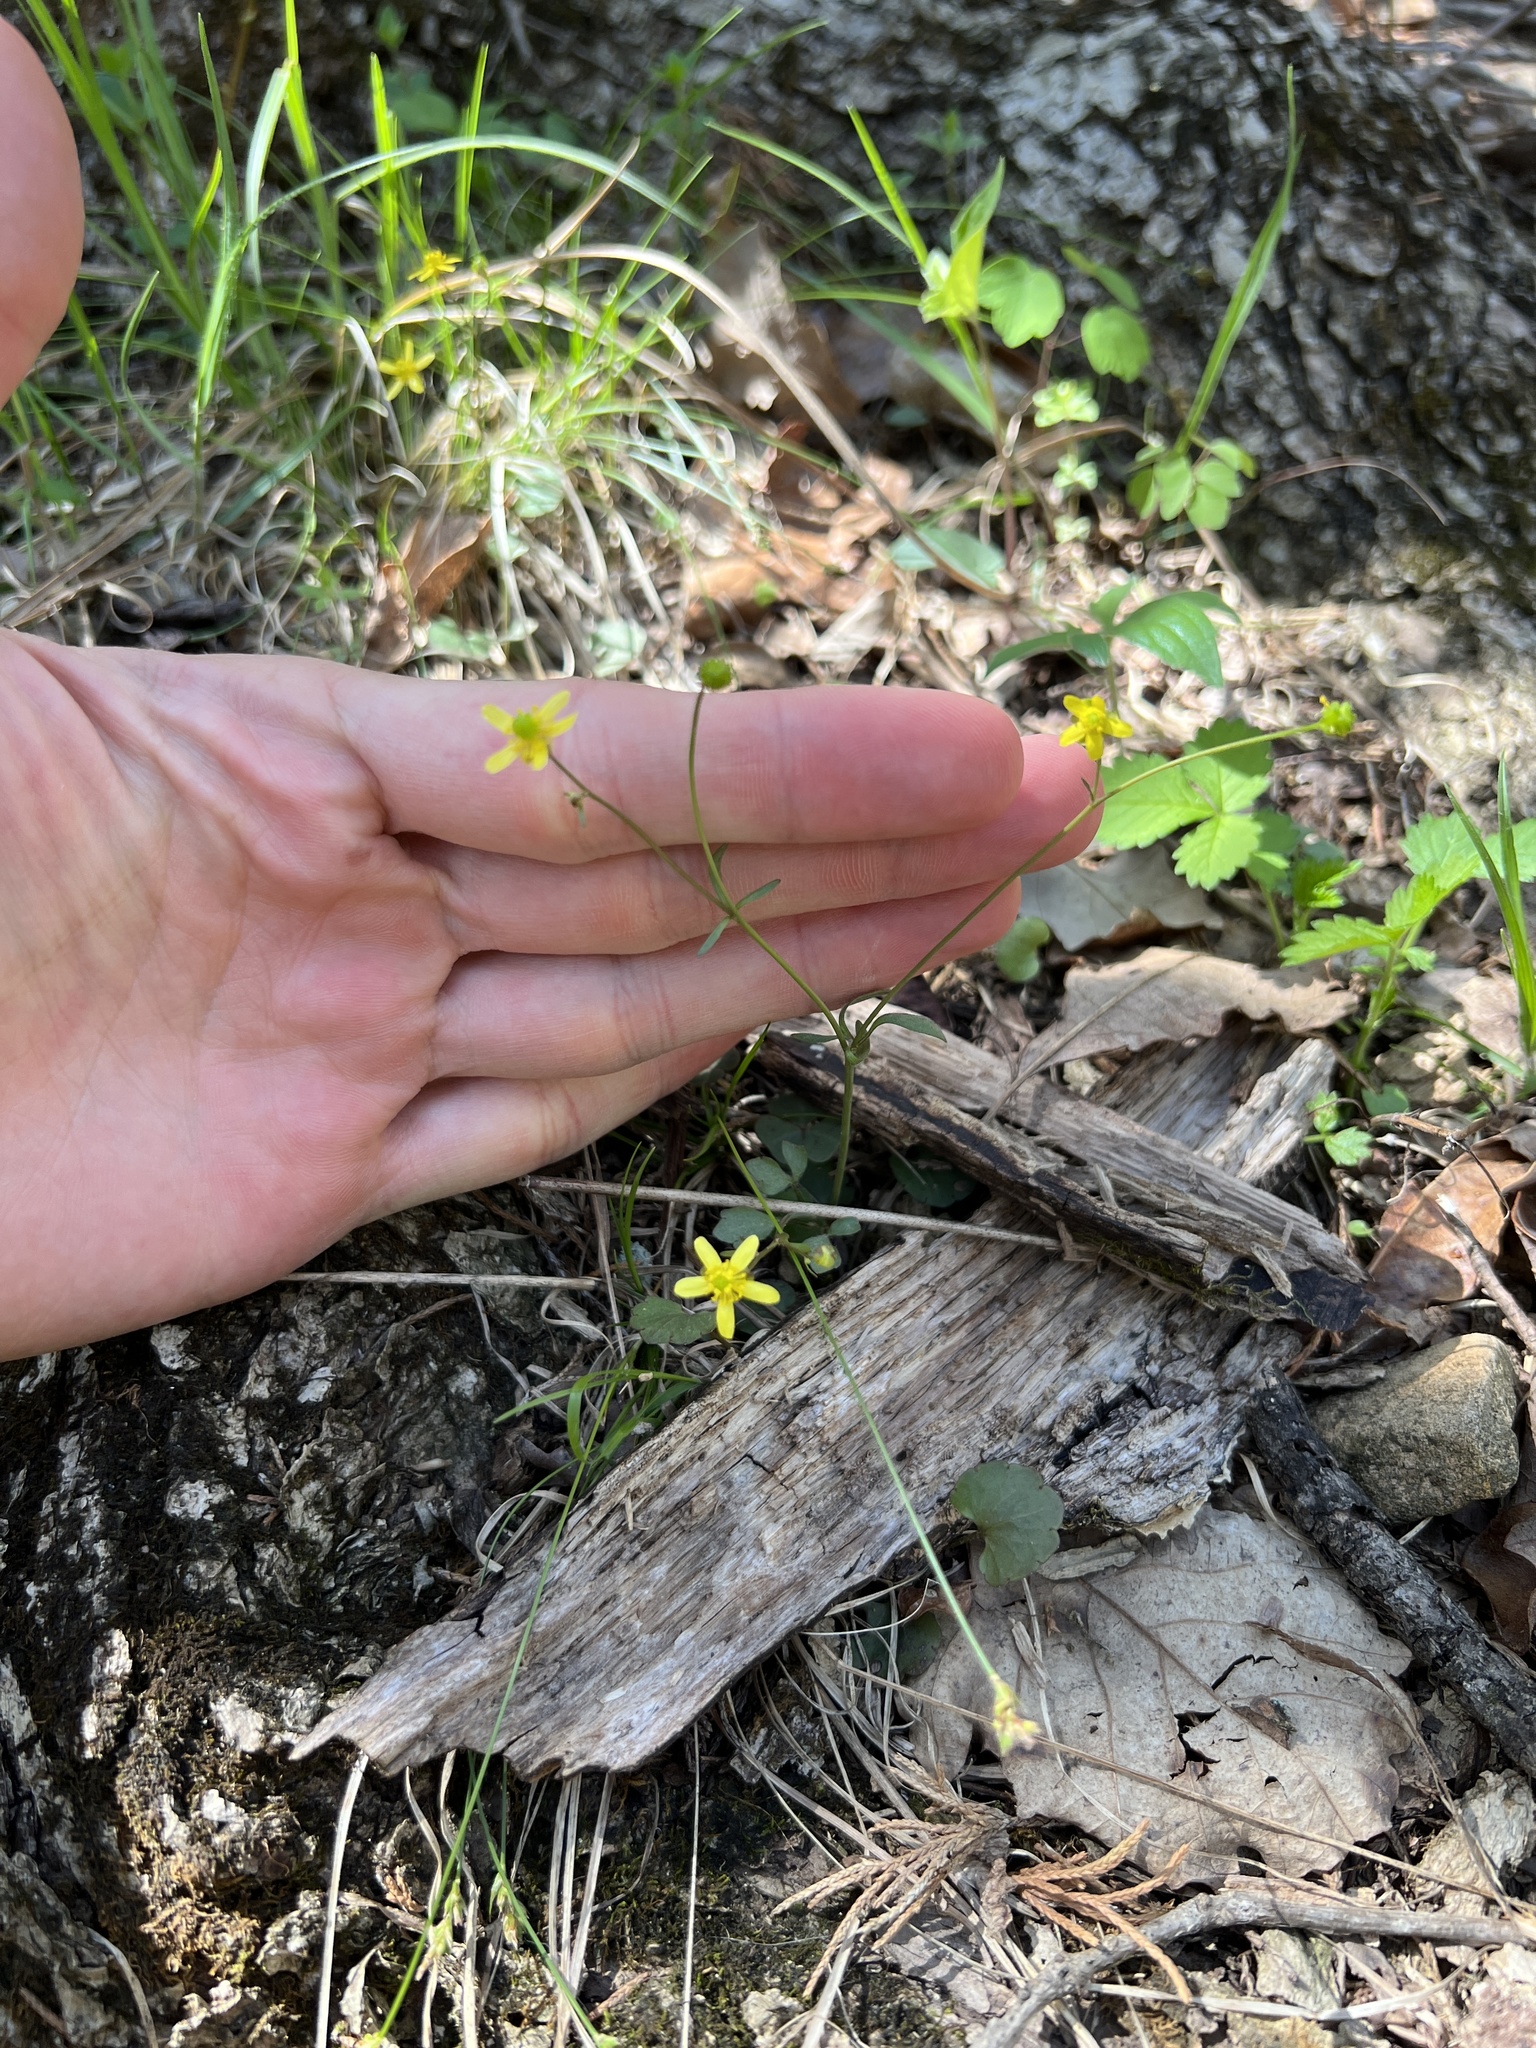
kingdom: Plantae
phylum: Tracheophyta
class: Magnoliopsida
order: Ranunculales
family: Ranunculaceae
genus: Ranunculus
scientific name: Ranunculus harveyi
